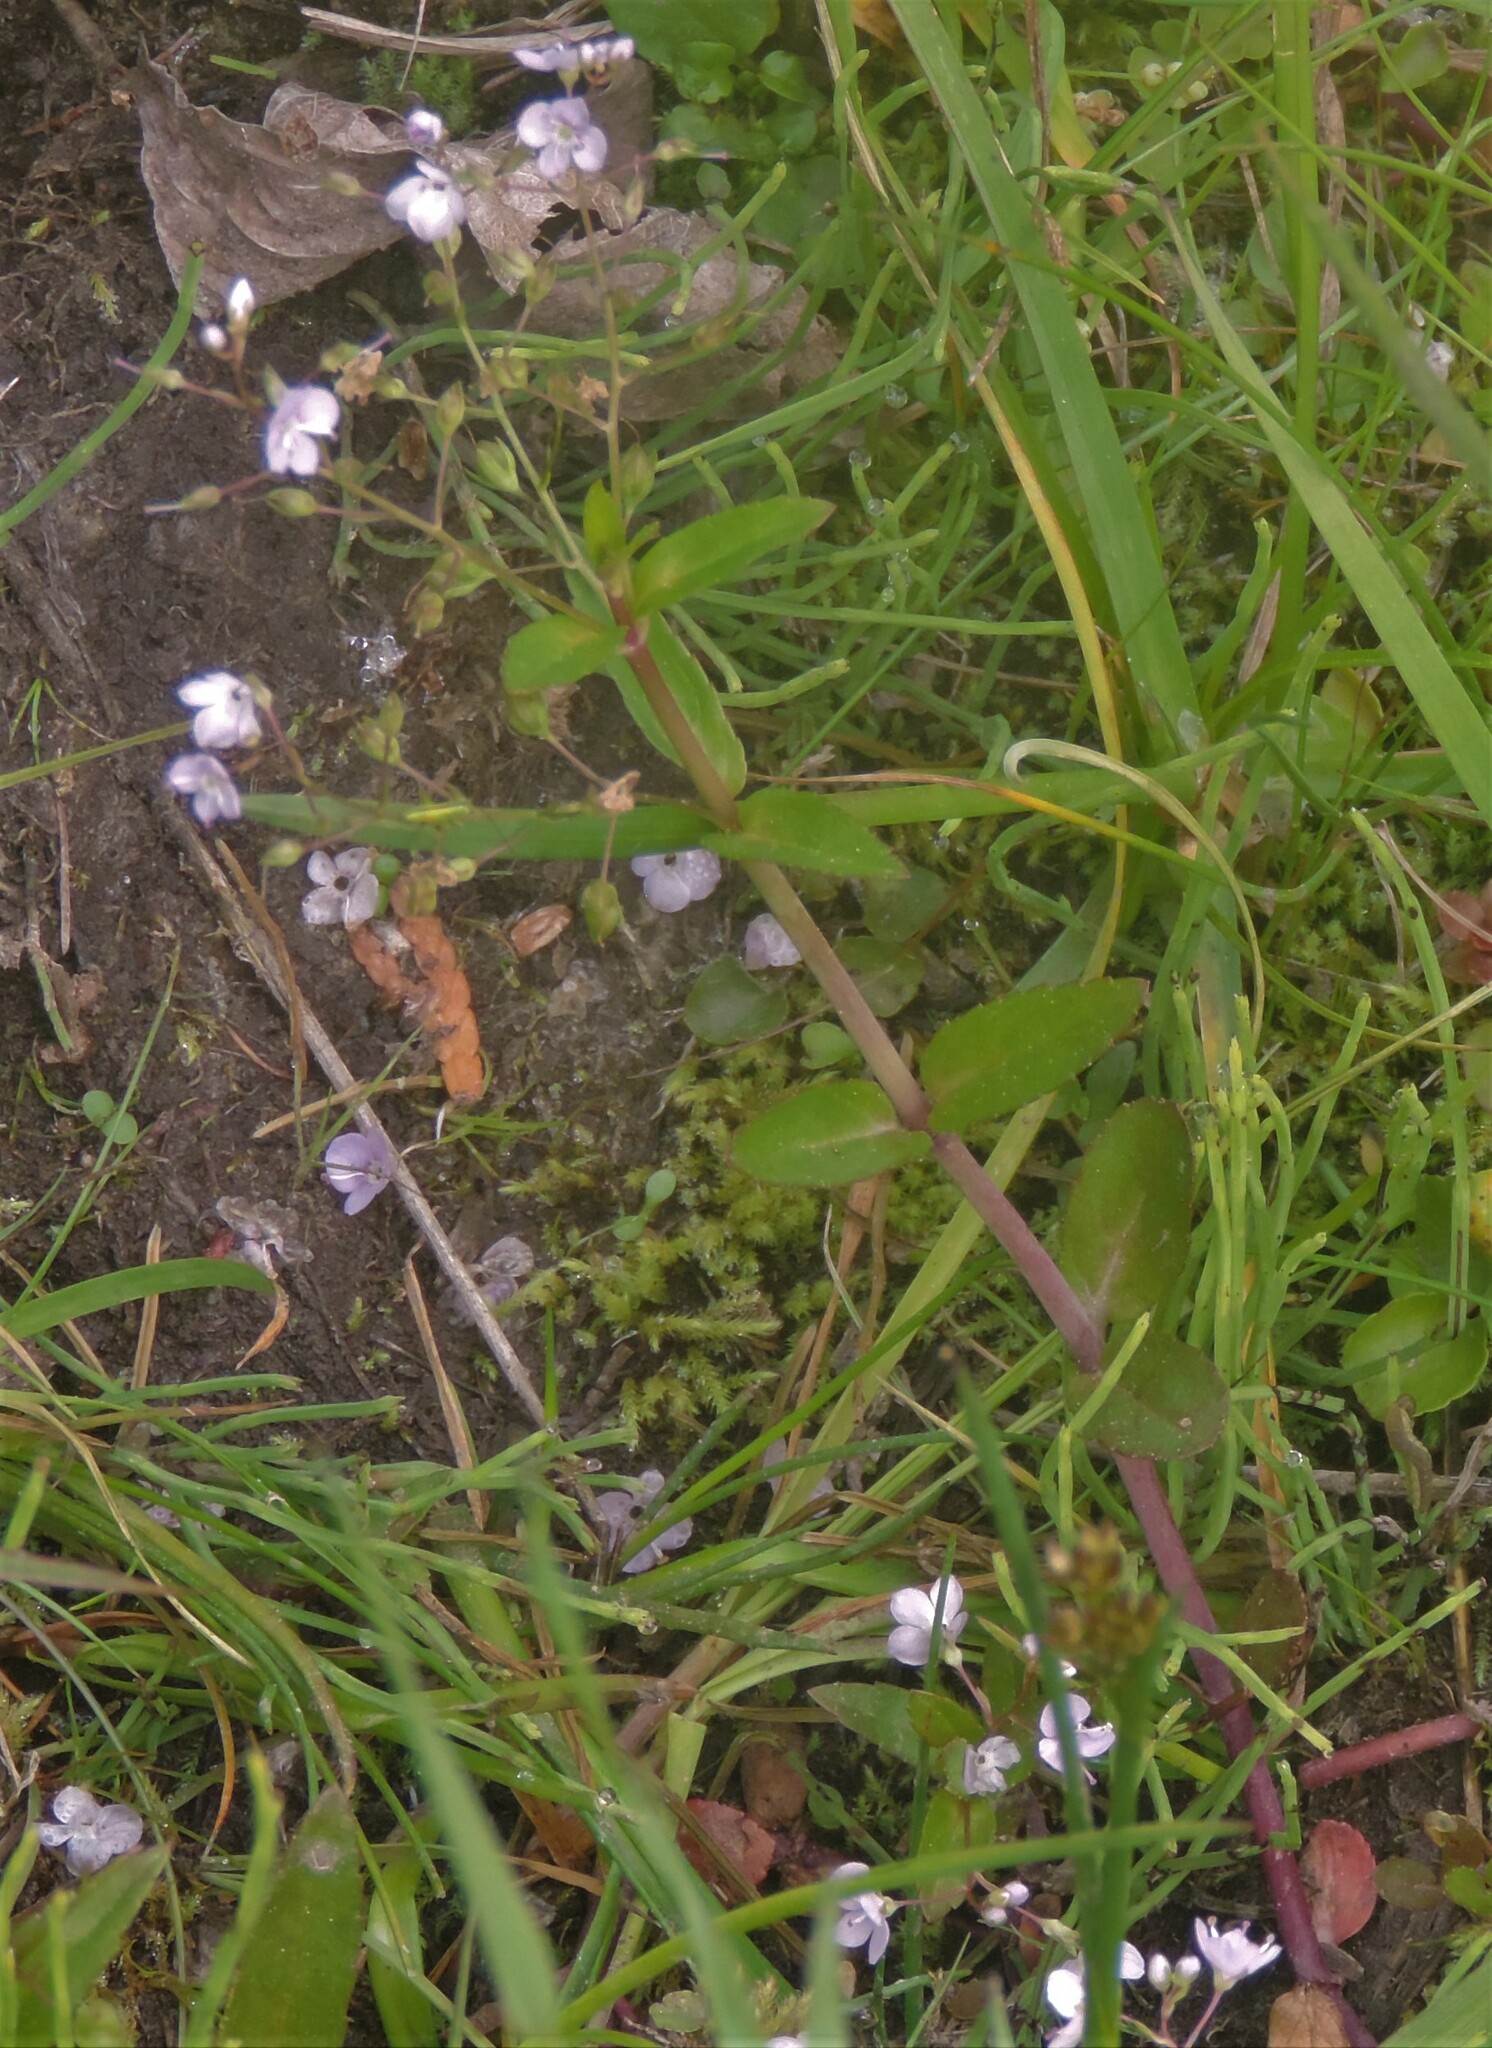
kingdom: Plantae
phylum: Tracheophyta
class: Magnoliopsida
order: Lamiales
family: Plantaginaceae
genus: Veronica
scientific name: Veronica americana
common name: American brooklime
